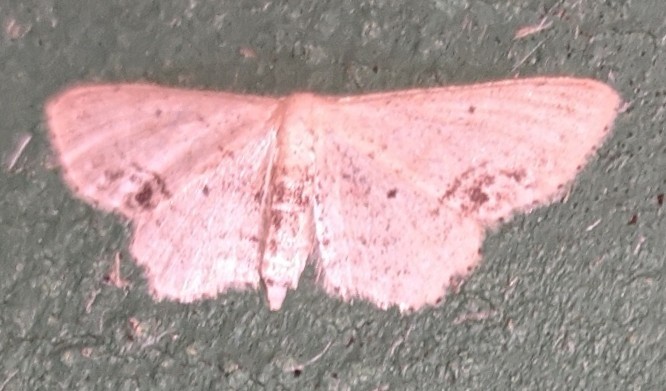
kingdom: Animalia
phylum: Arthropoda
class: Insecta
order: Lepidoptera
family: Geometridae
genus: Idaea
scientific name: Idaea dimidiata
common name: Single-dotted wave
